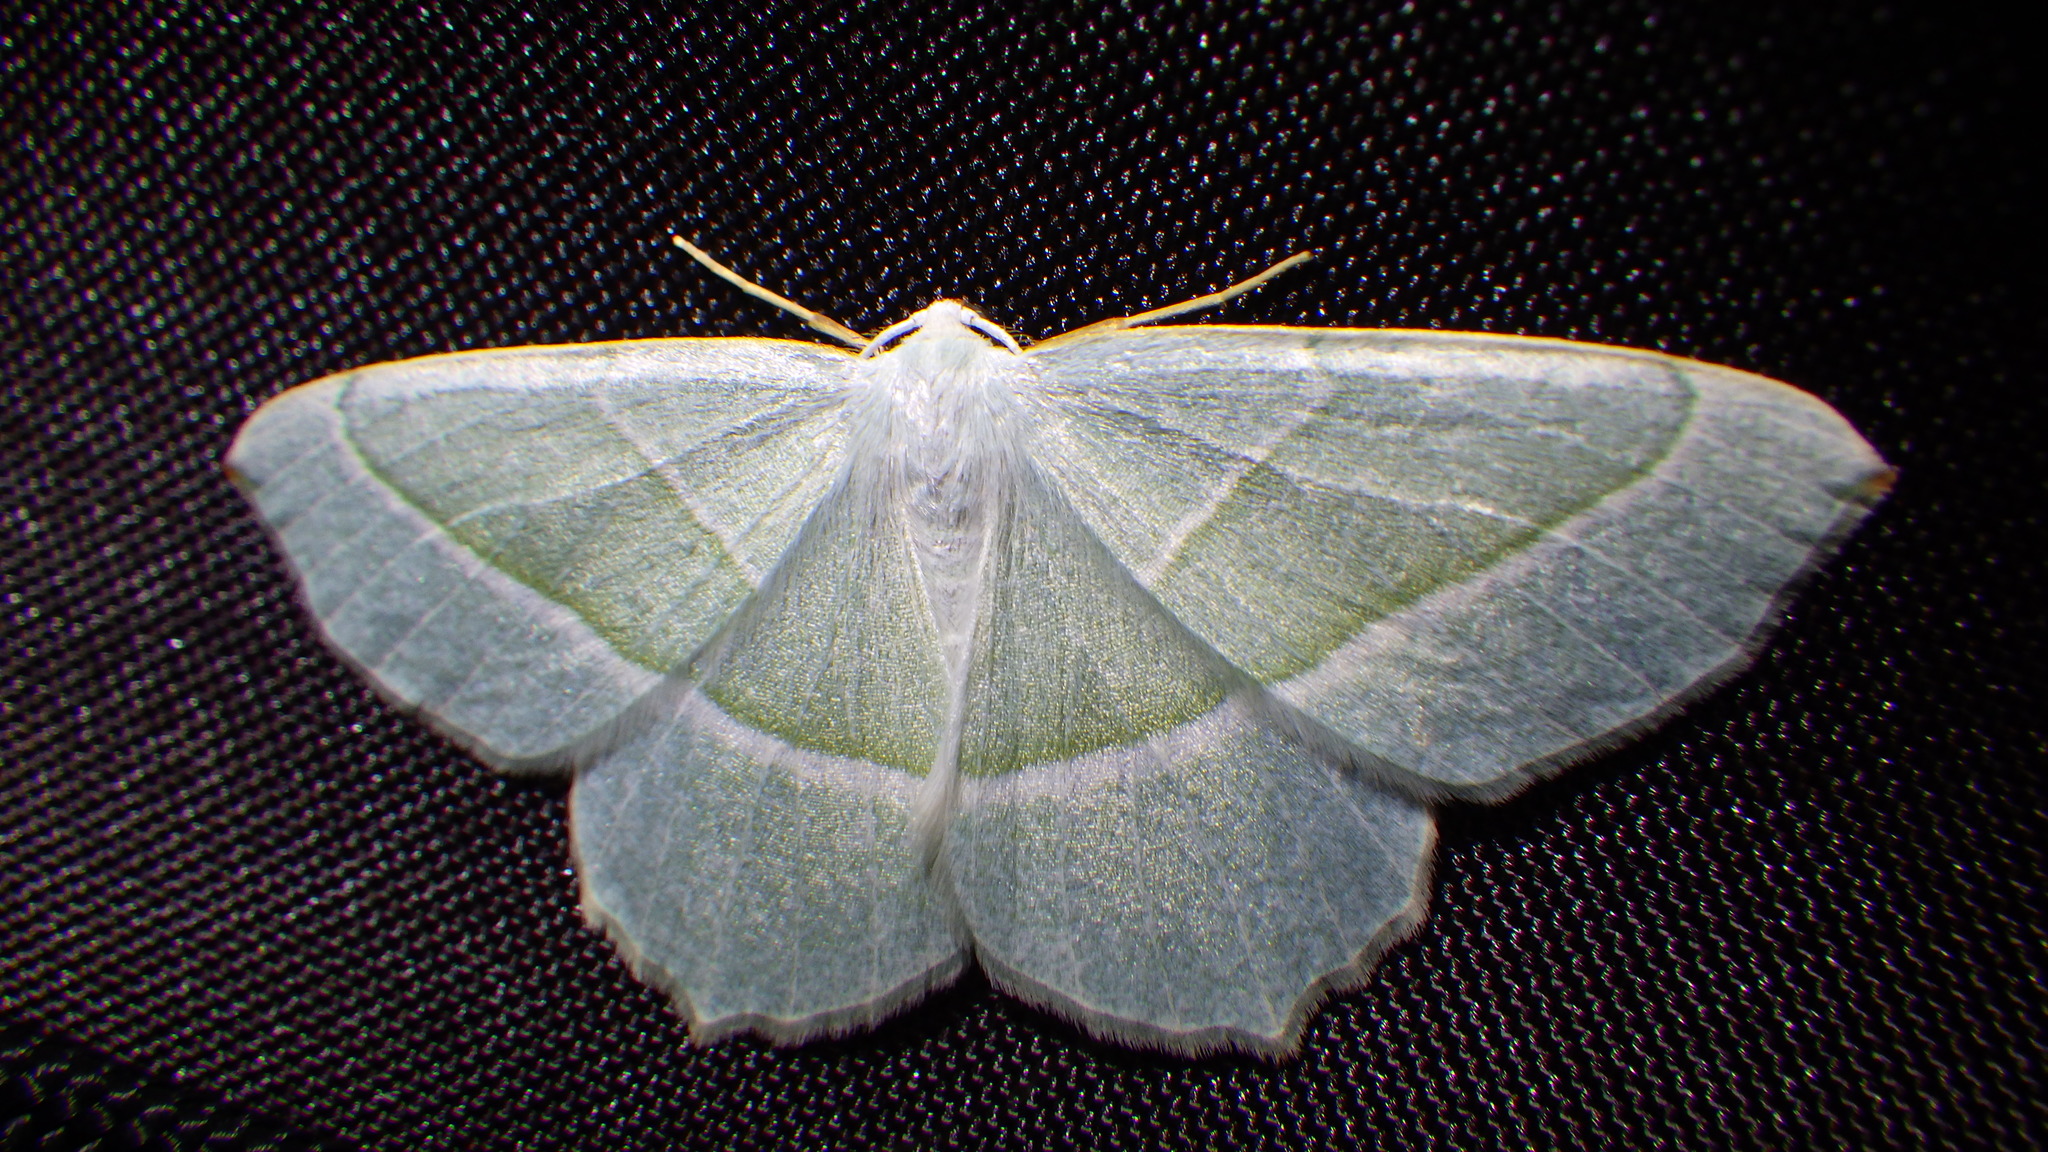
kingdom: Animalia
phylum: Arthropoda
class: Insecta
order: Lepidoptera
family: Geometridae
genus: Campaea
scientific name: Campaea margaritaria
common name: Light emerald
